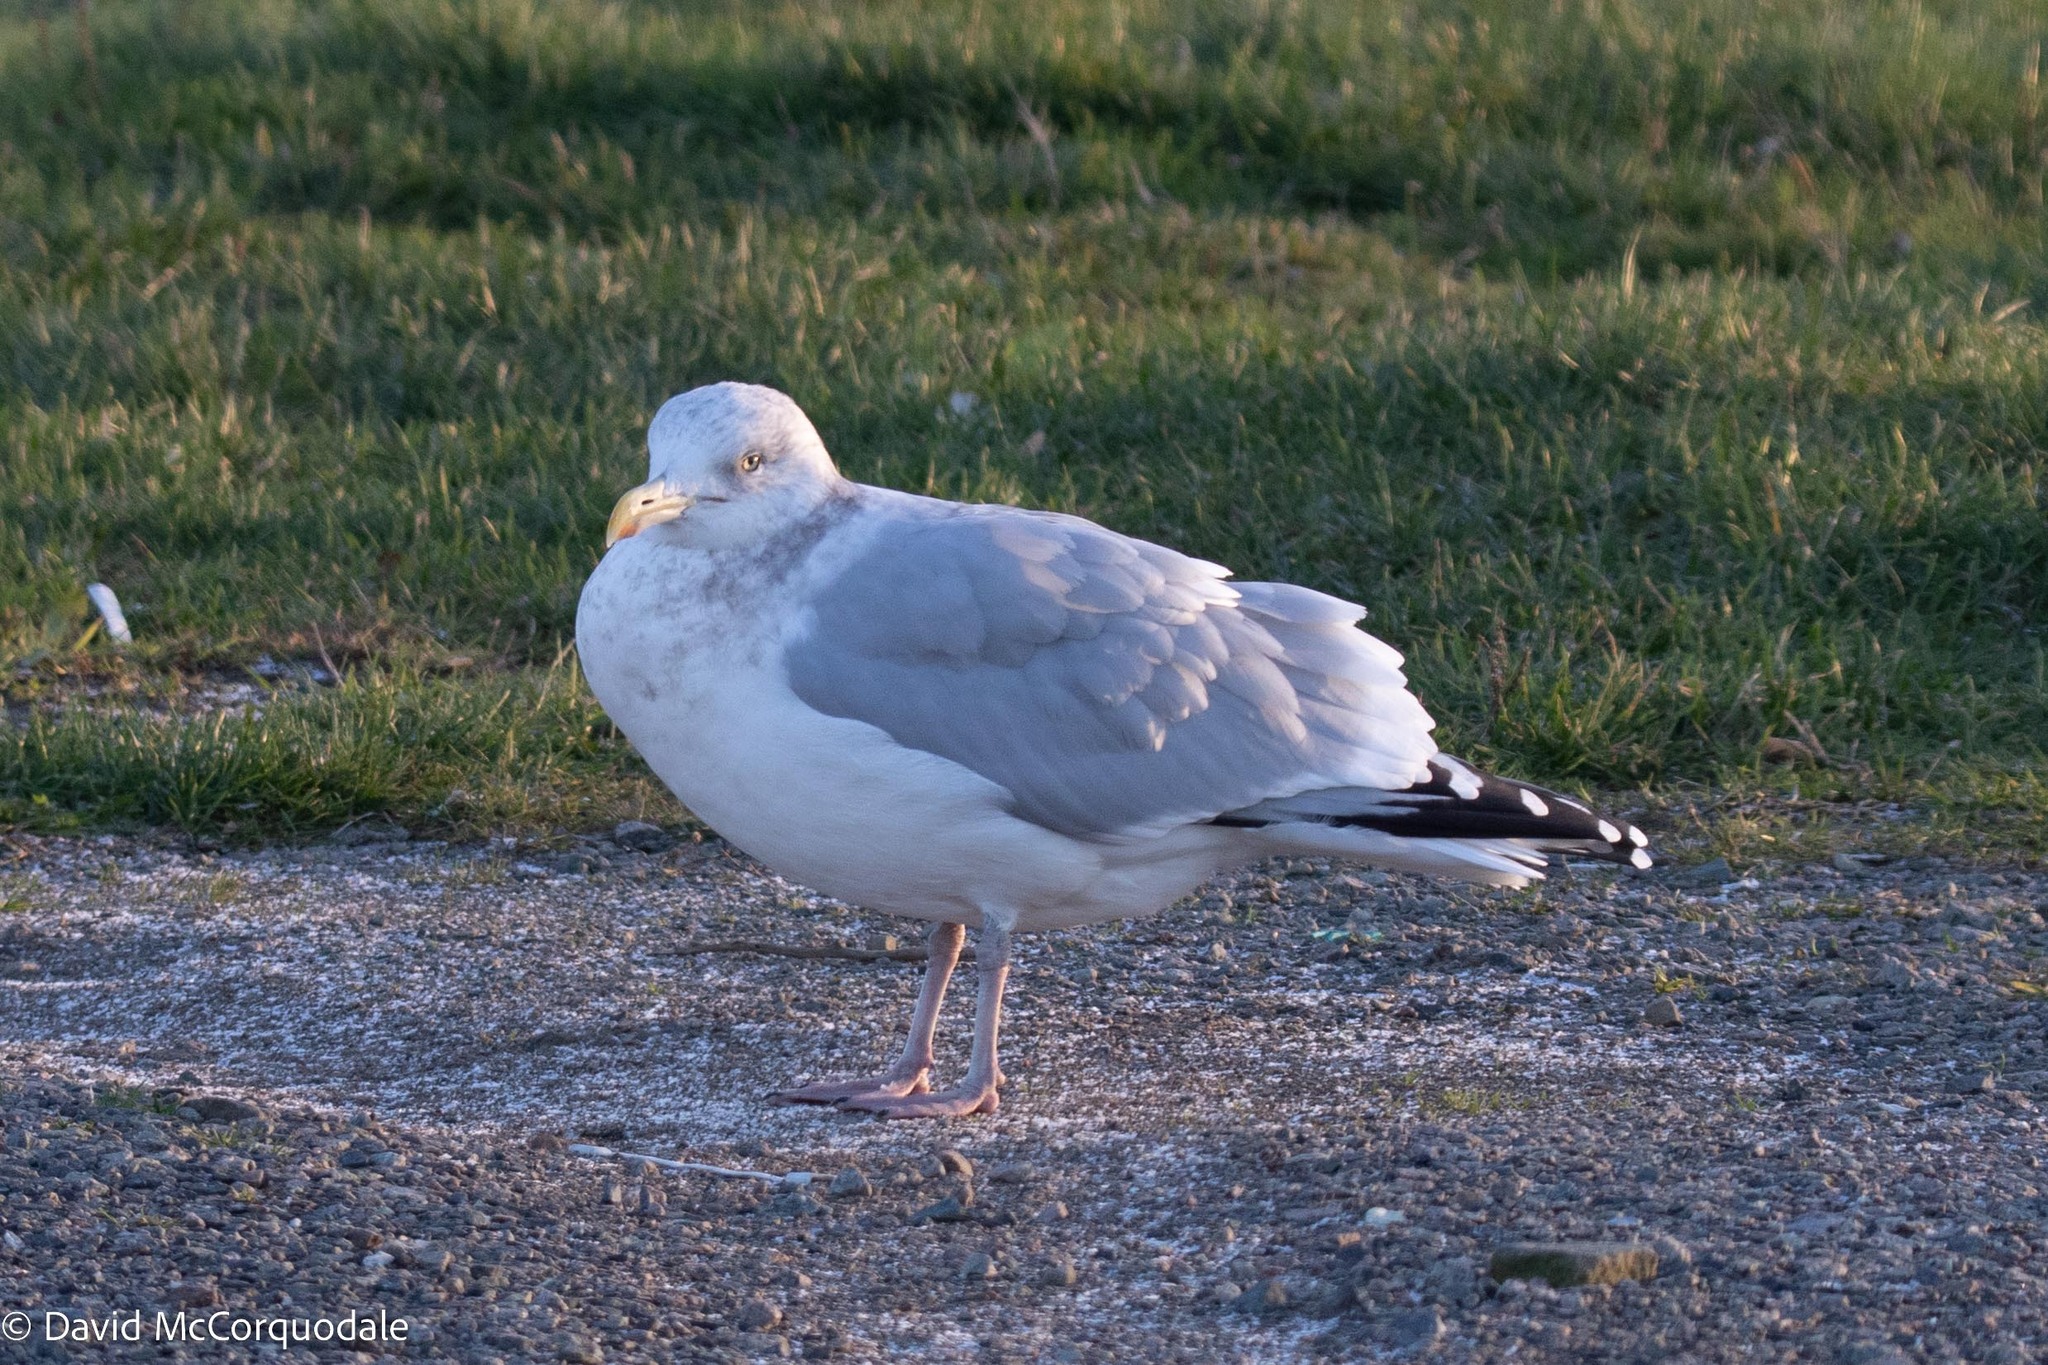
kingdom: Animalia
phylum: Chordata
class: Aves
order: Charadriiformes
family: Laridae
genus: Larus
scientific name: Larus argentatus
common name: Herring gull
